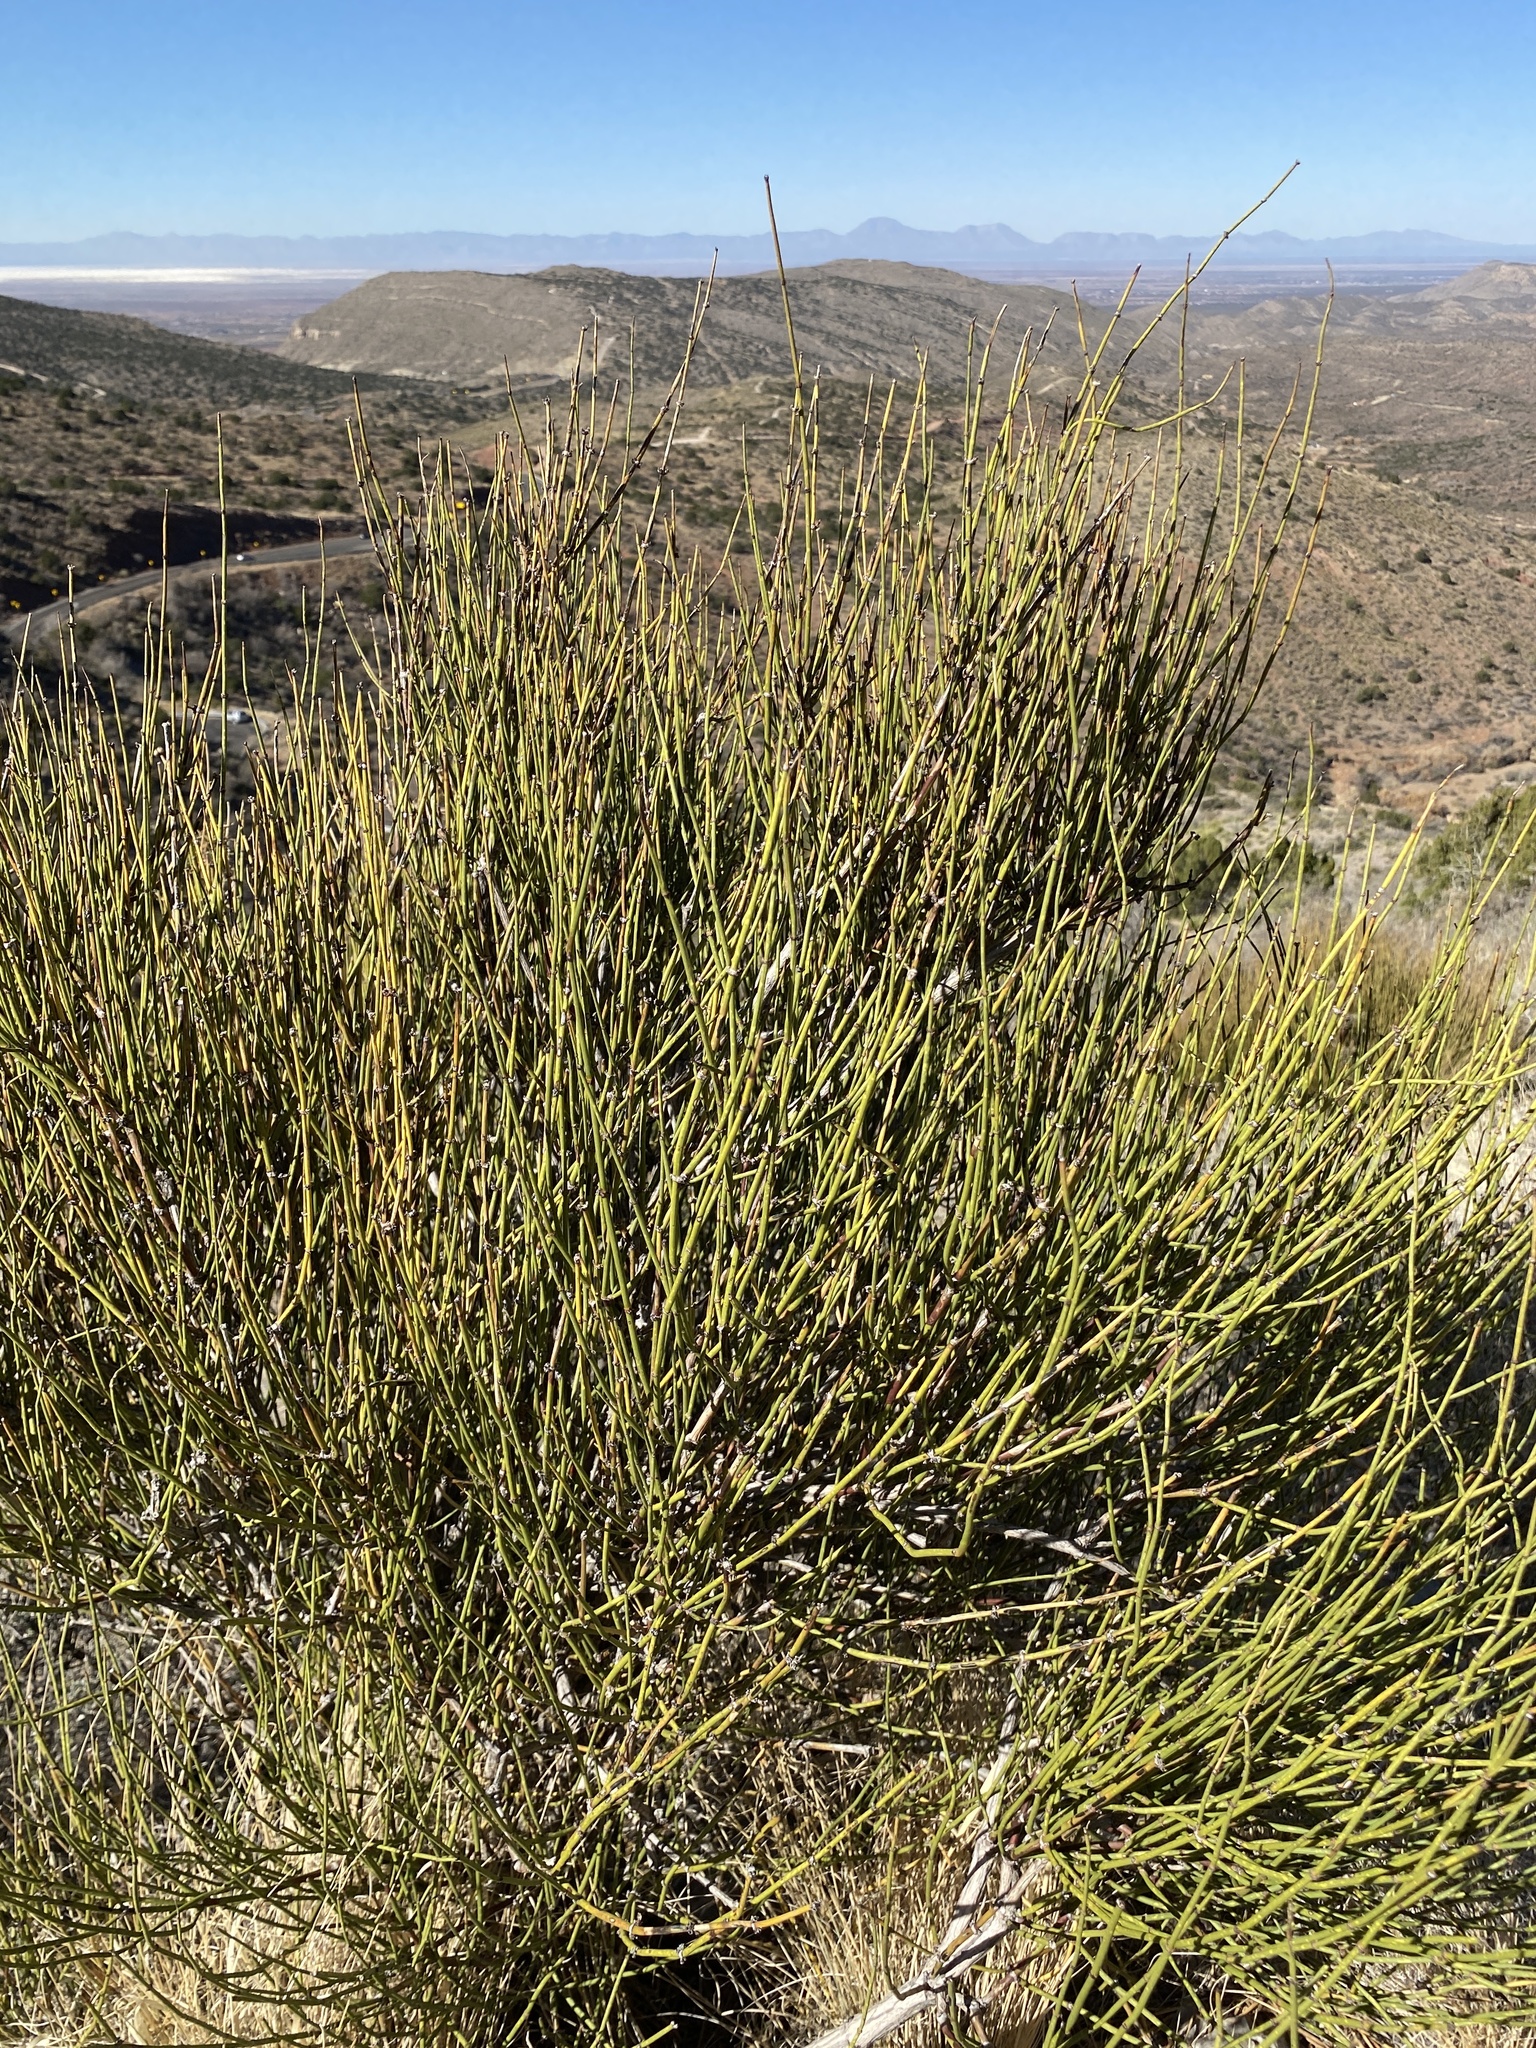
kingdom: Plantae
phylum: Tracheophyta
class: Gnetopsida
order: Ephedrales
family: Ephedraceae
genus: Ephedra
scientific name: Ephedra trifurca
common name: Mexican-tea
